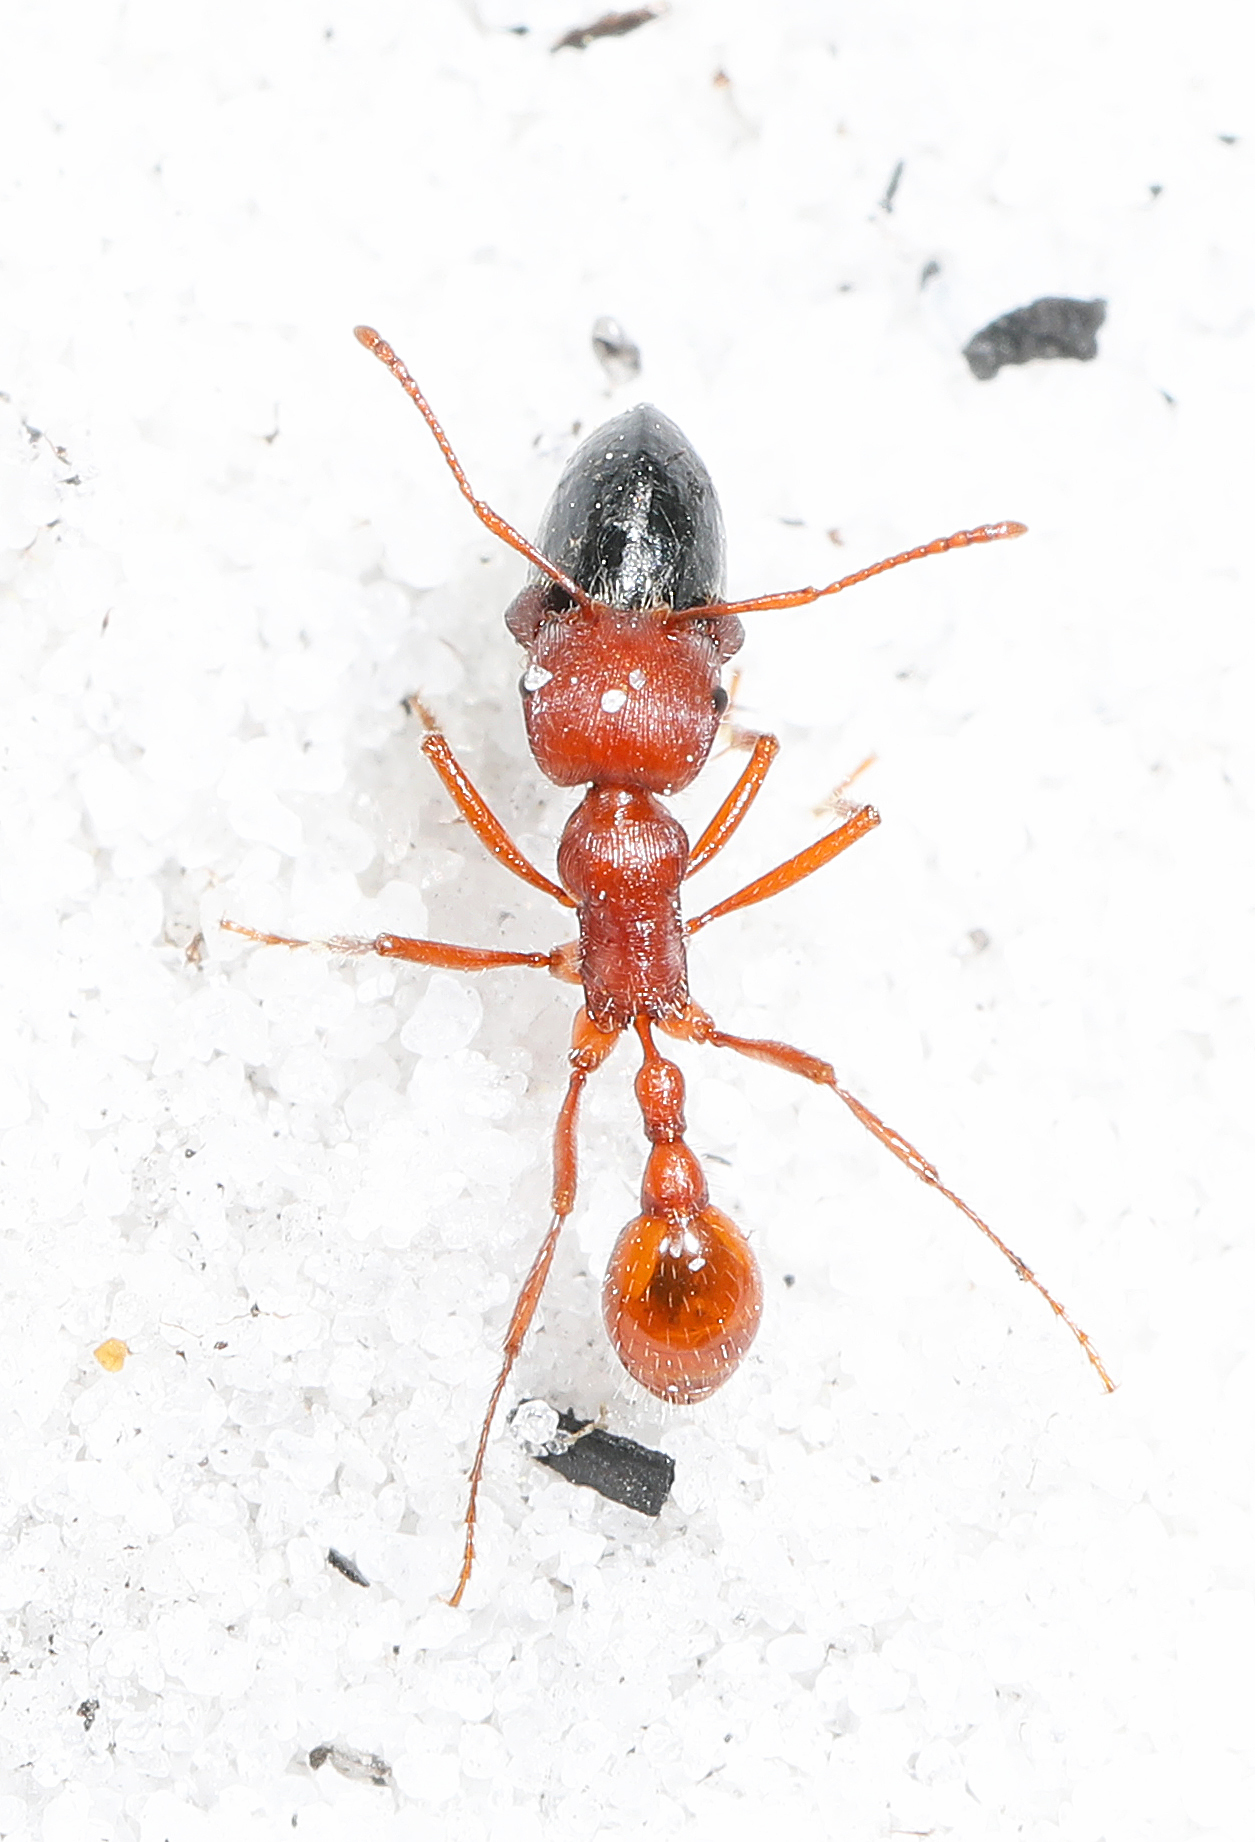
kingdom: Animalia
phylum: Arthropoda
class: Insecta
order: Hymenoptera
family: Formicidae
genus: Pogonomyrmex
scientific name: Pogonomyrmex badius
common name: Florida harvester ant
